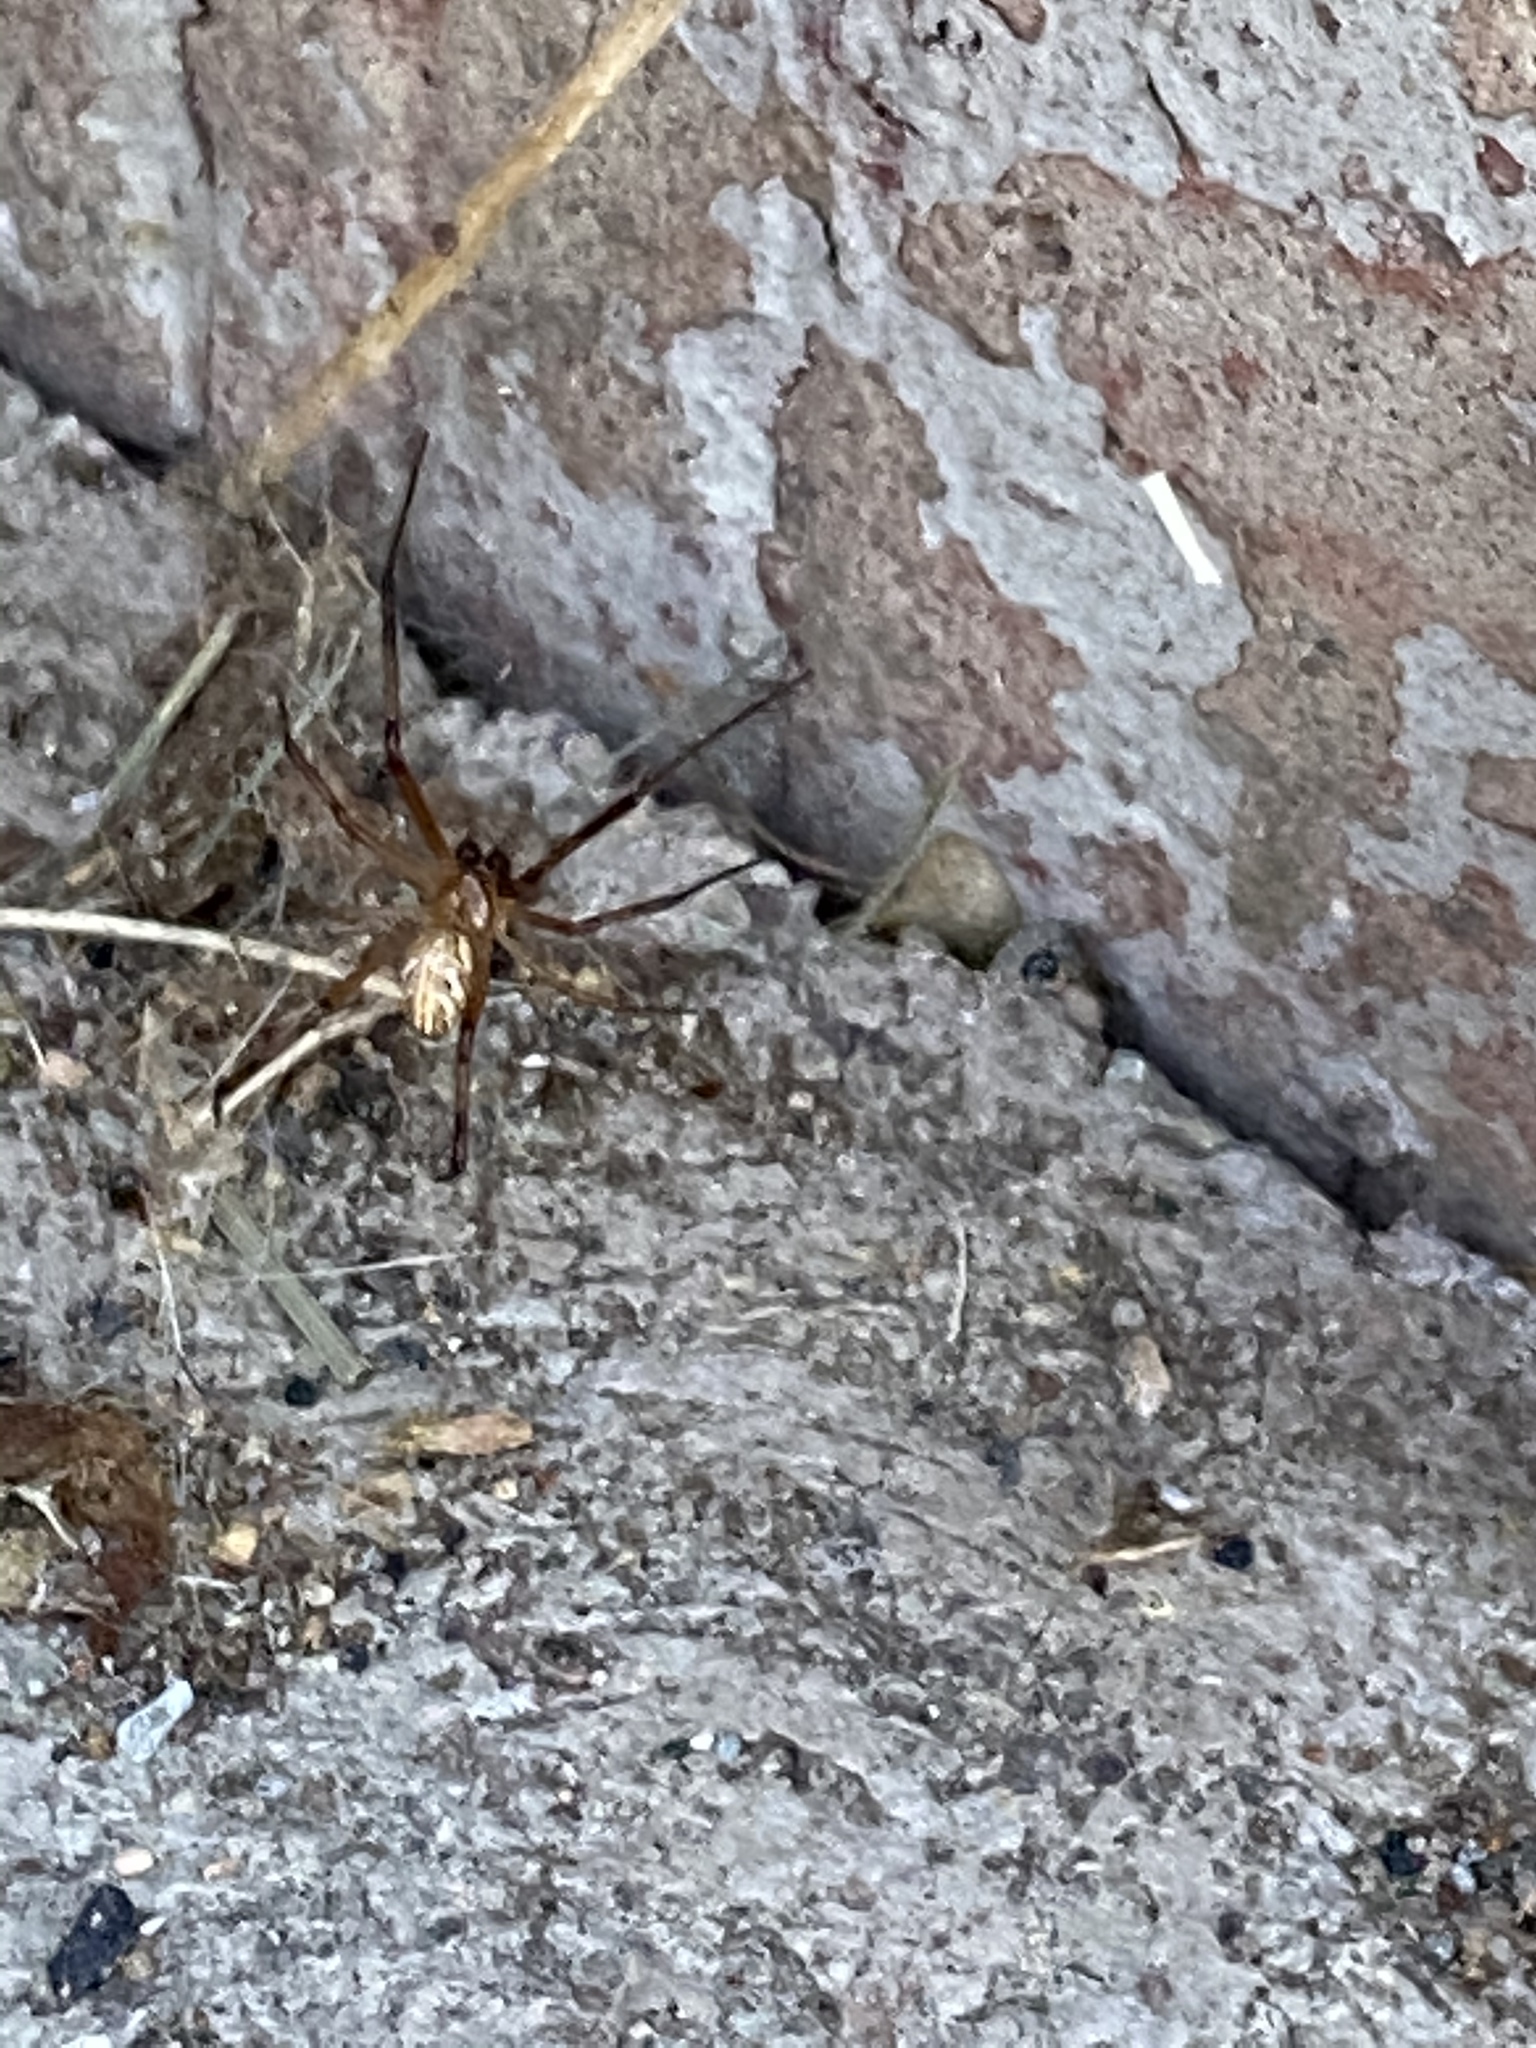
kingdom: Animalia
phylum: Arthropoda
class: Arachnida
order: Araneae
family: Theridiidae
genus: Latrodectus
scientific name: Latrodectus hesperus
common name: Western black widow
